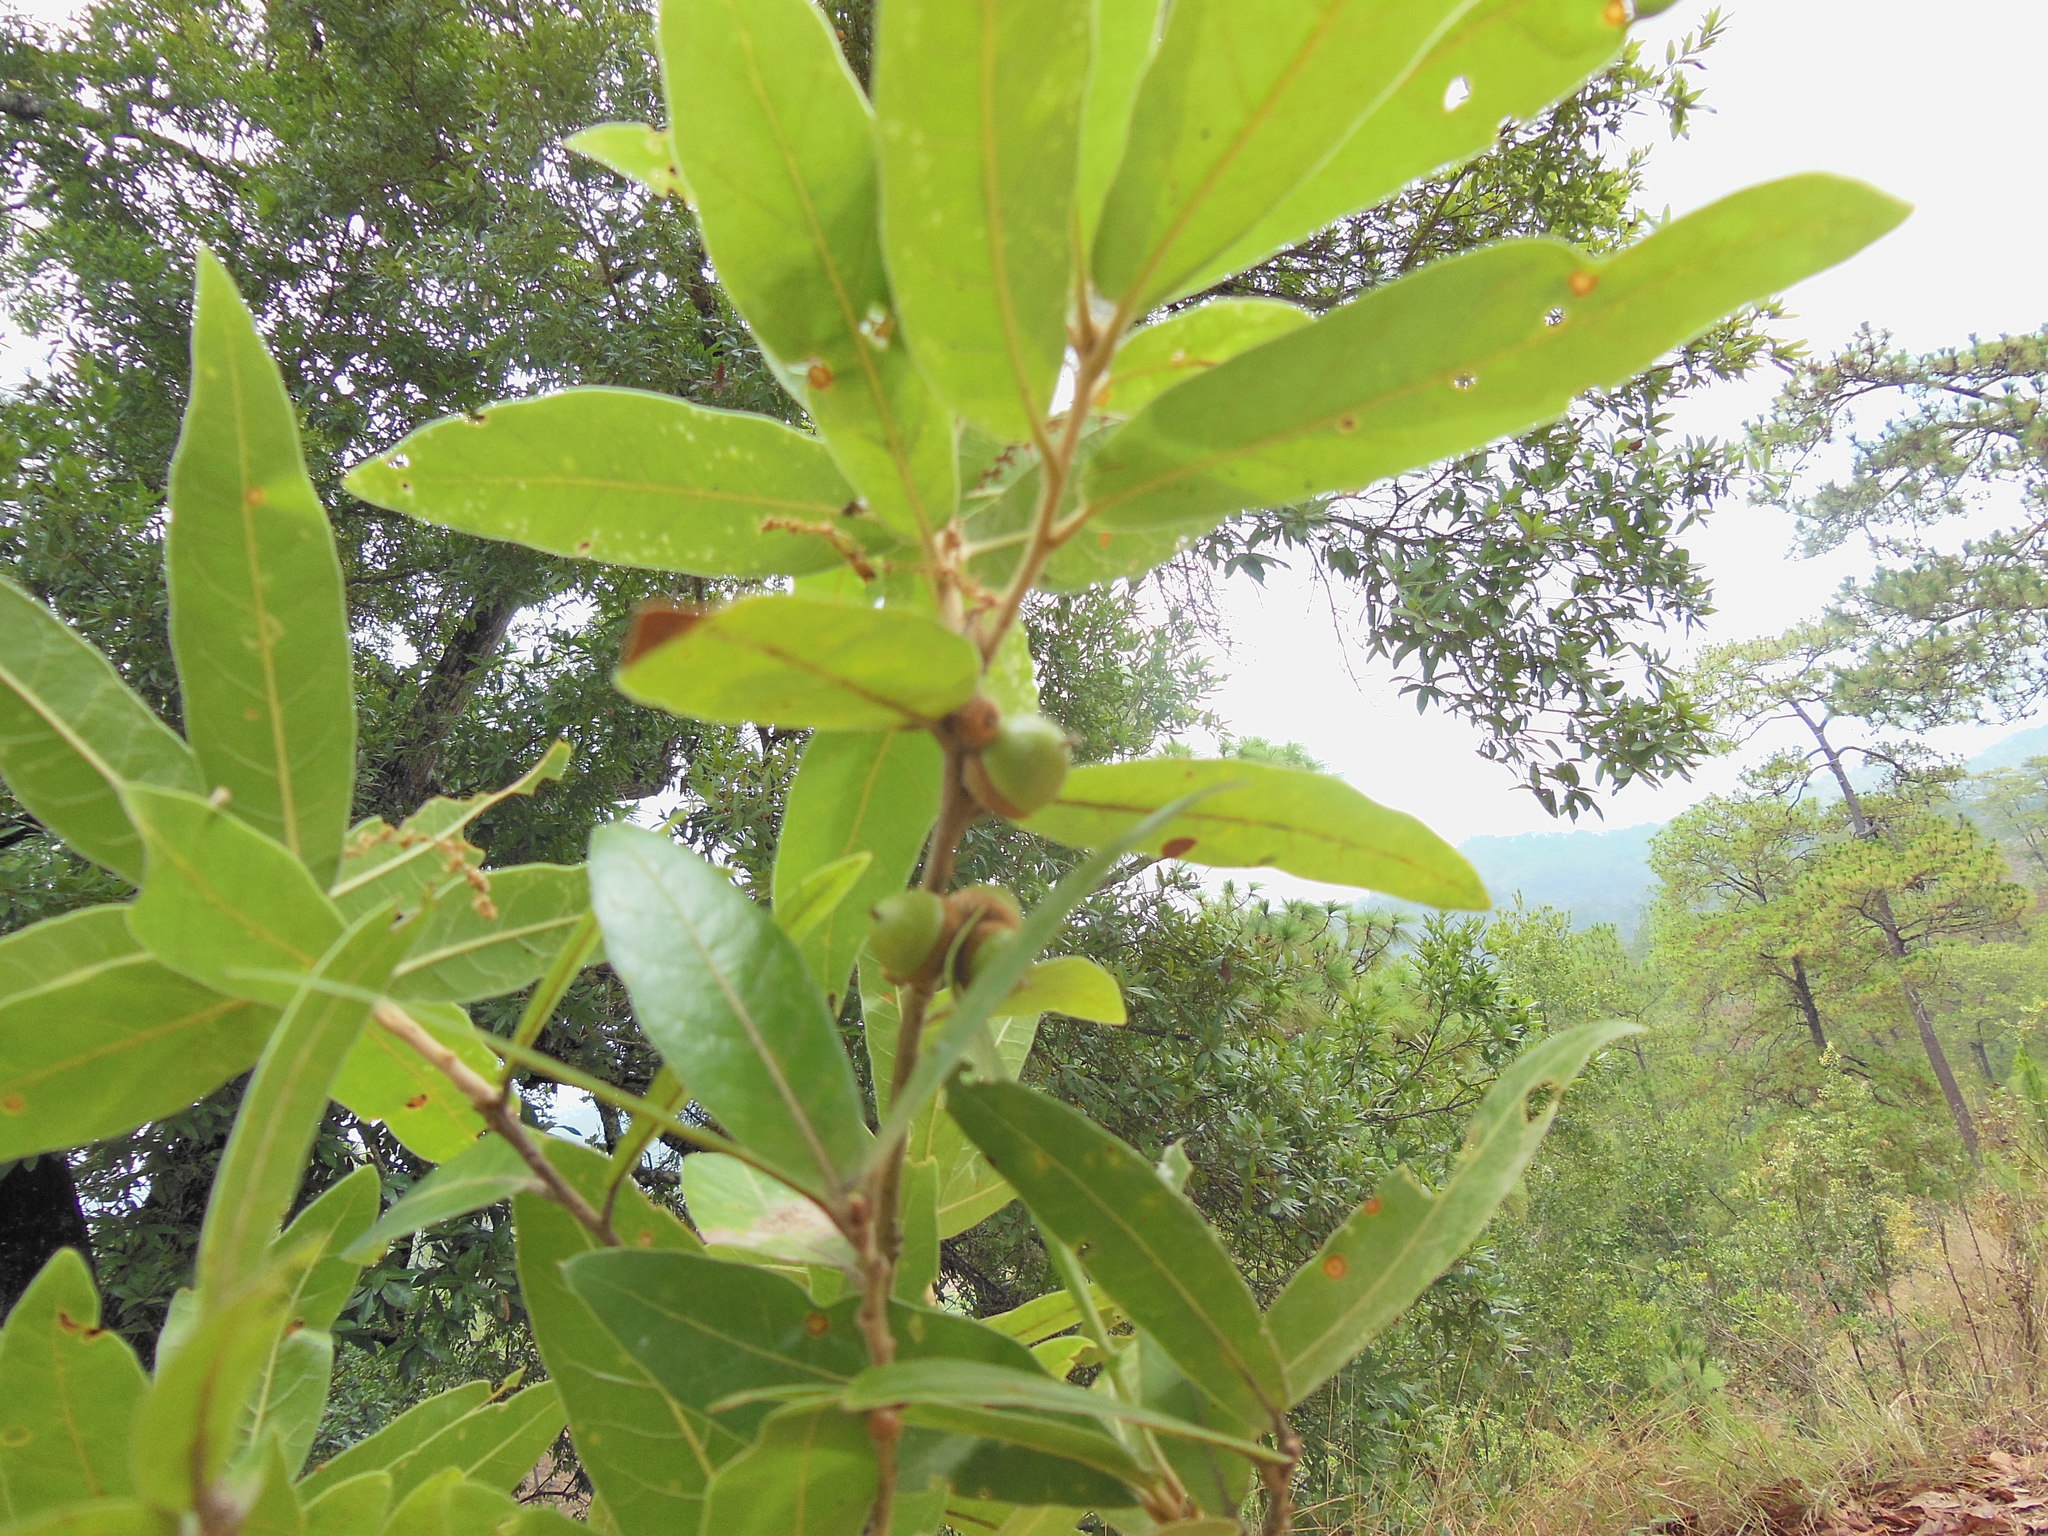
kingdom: Plantae
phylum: Tracheophyta
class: Magnoliopsida
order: Fagales
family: Fagaceae
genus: Quercus
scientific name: Quercus salicifolia
